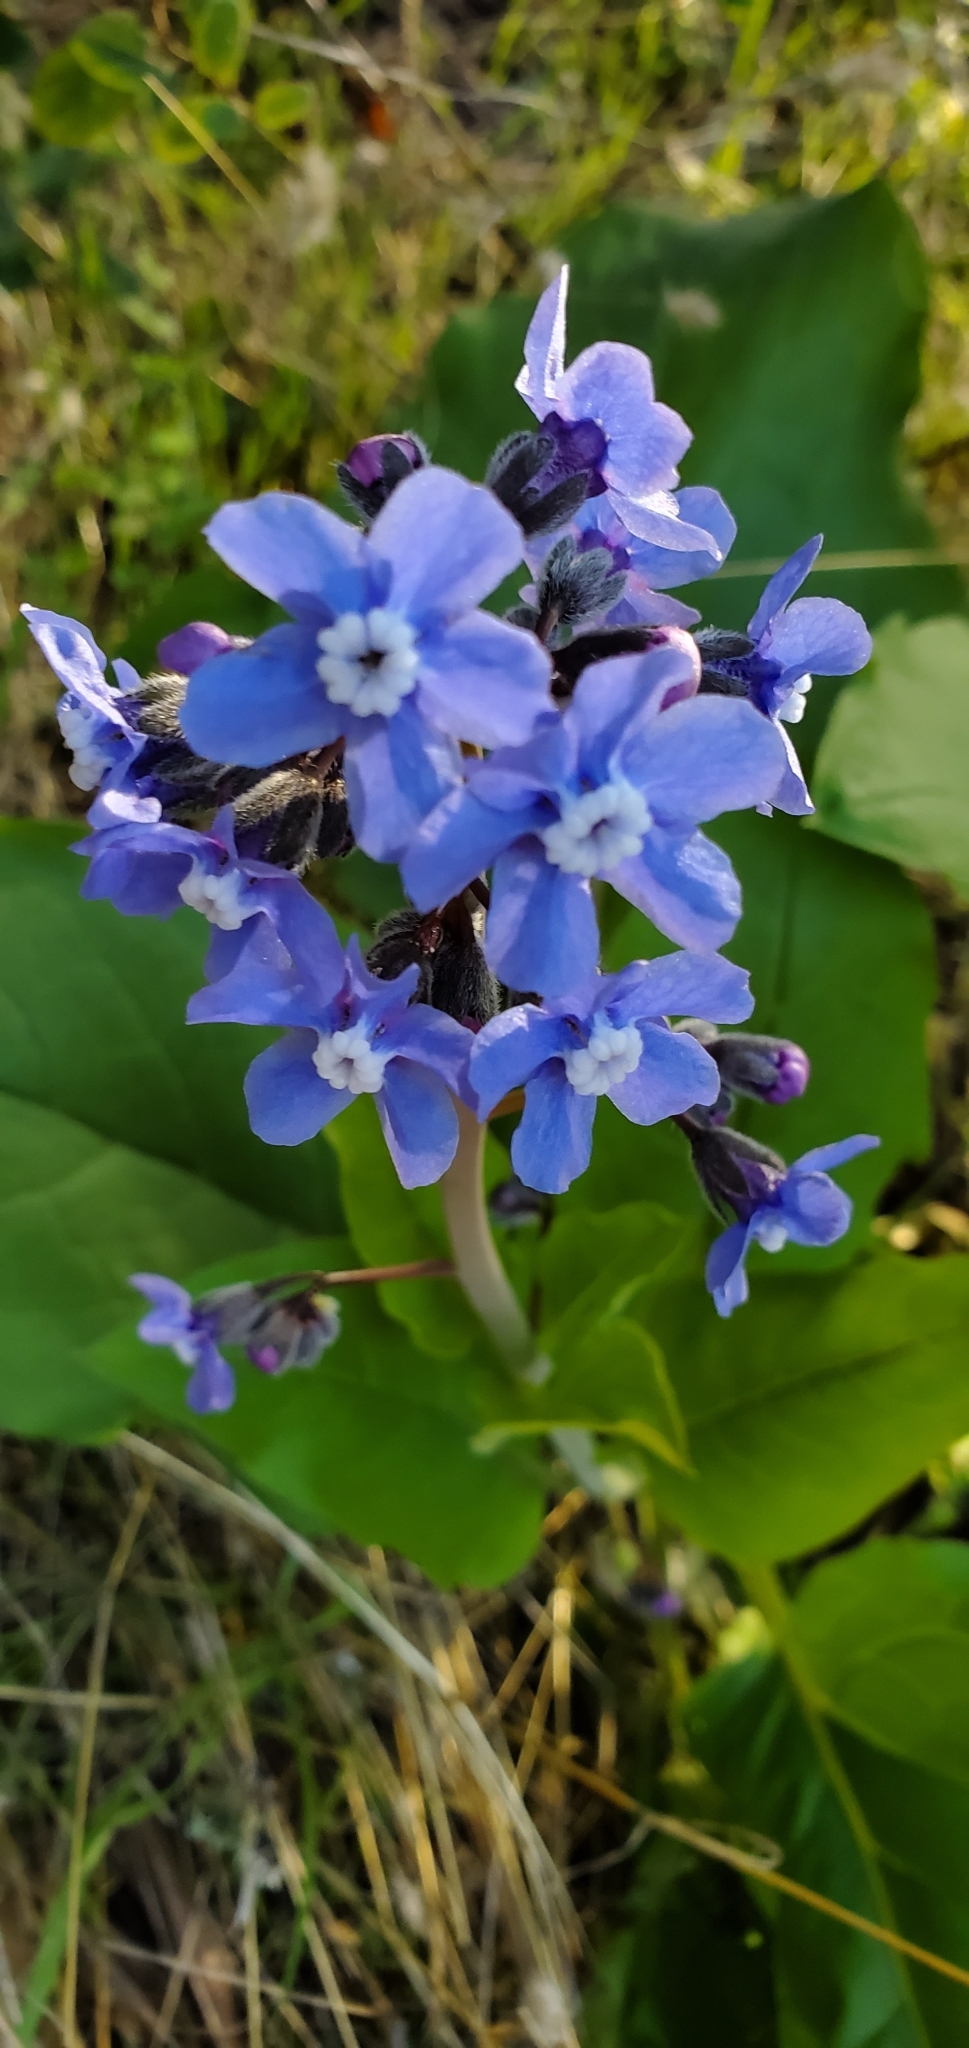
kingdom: Plantae
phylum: Tracheophyta
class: Magnoliopsida
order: Boraginales
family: Boraginaceae
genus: Adelinia
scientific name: Adelinia grande
